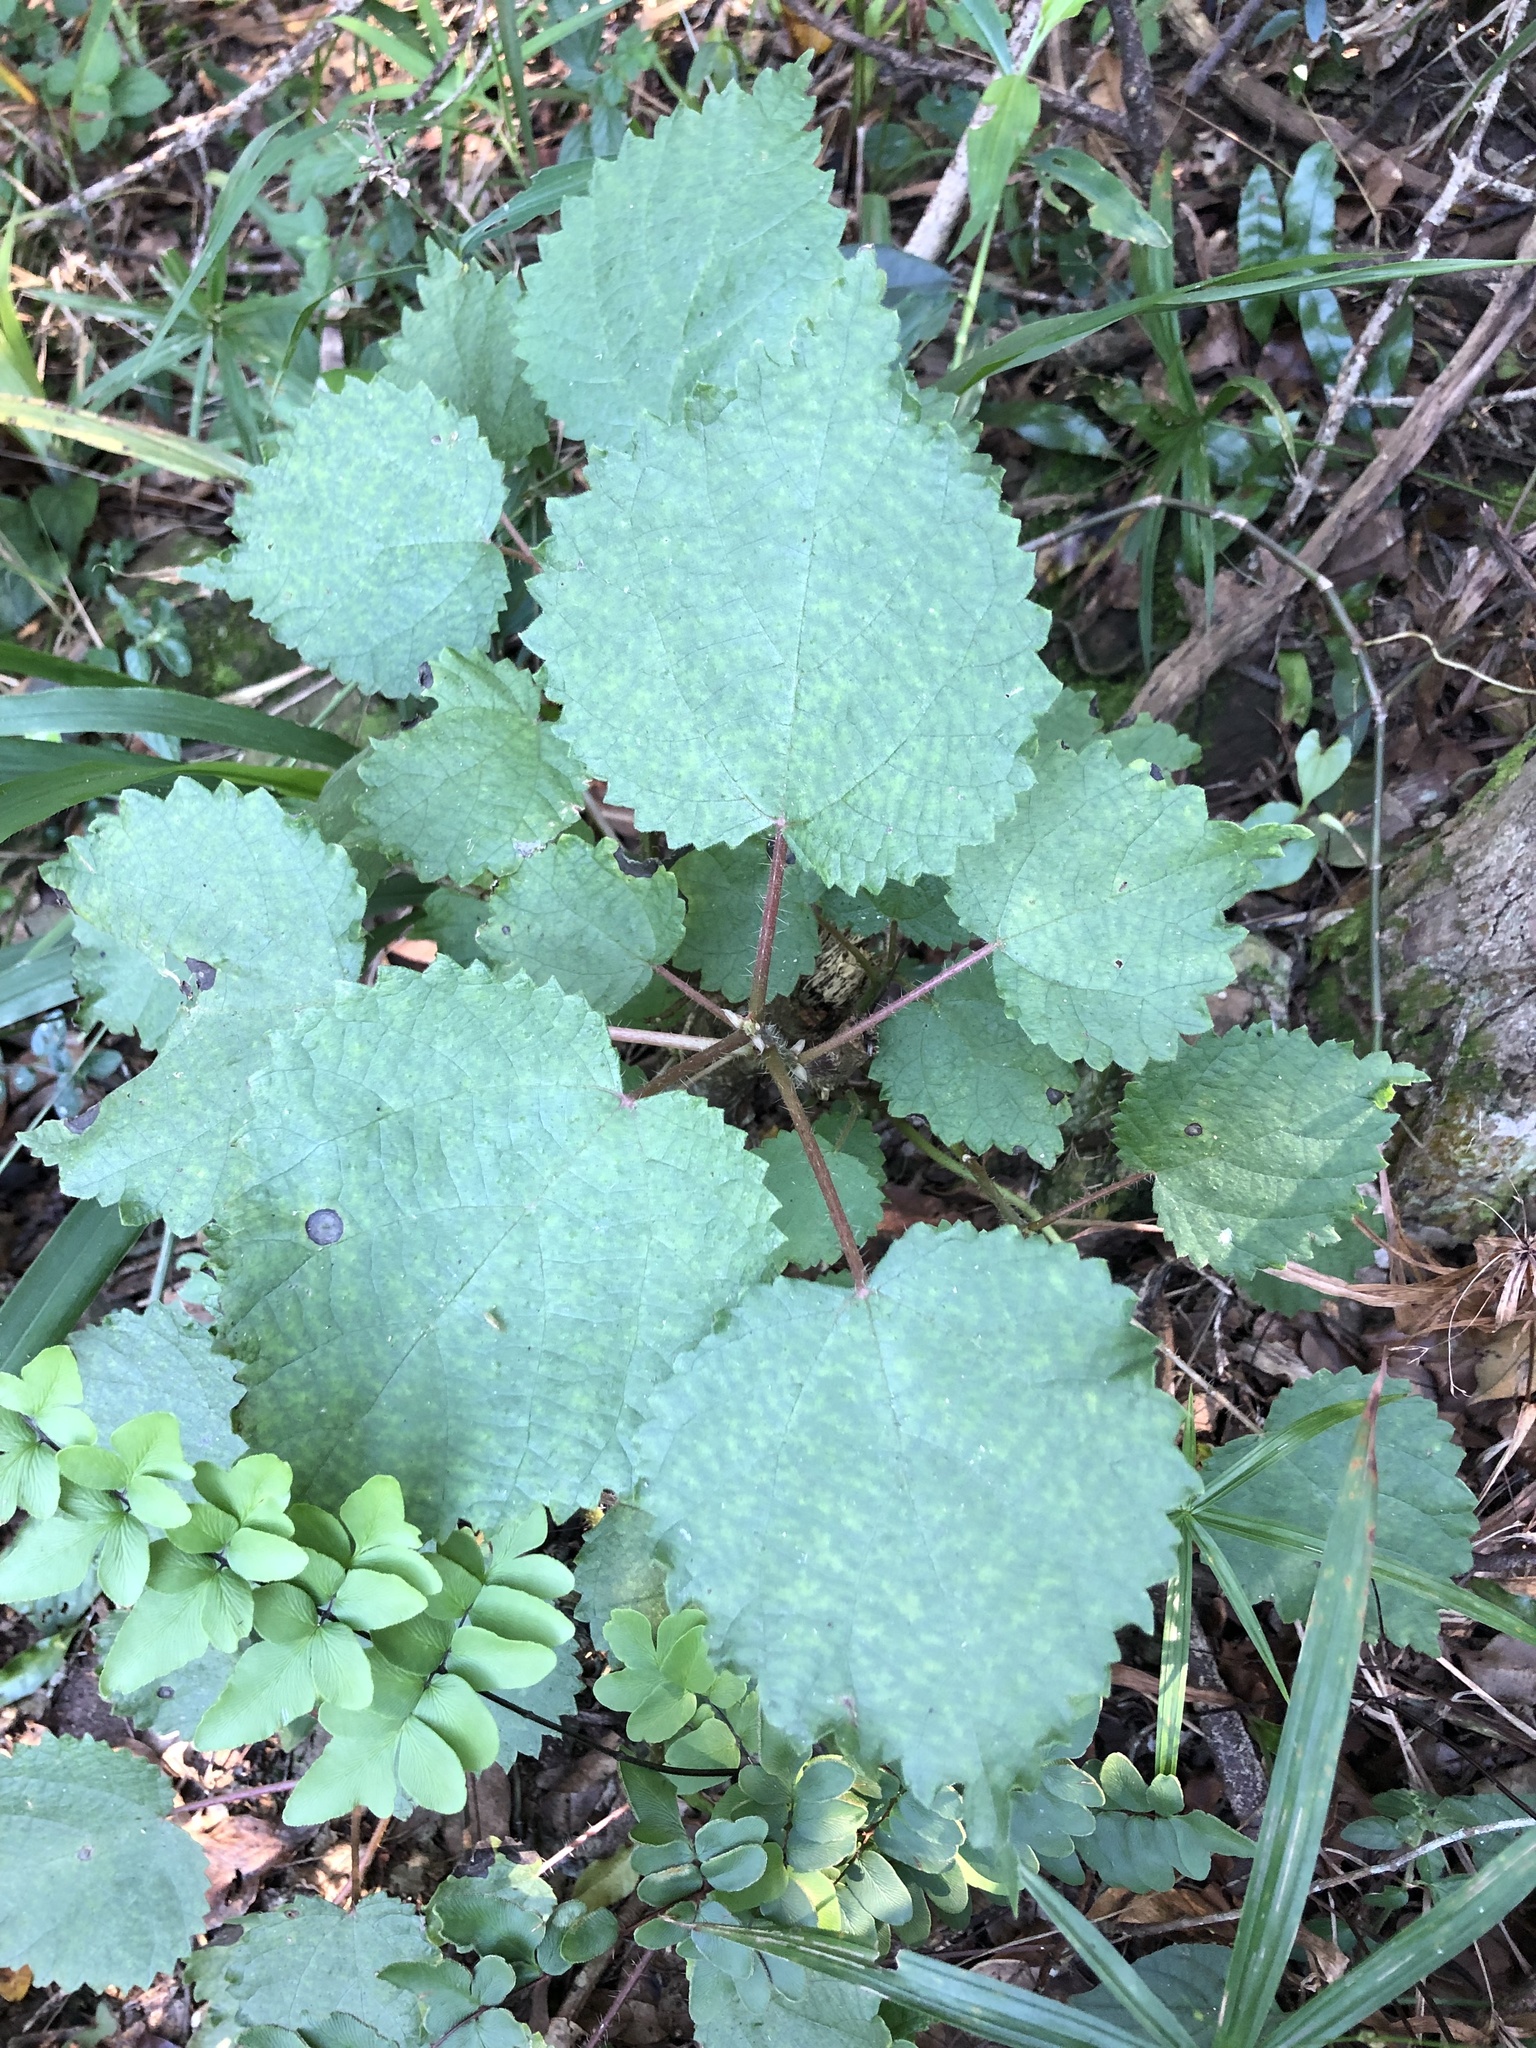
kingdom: Plantae
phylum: Tracheophyta
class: Magnoliopsida
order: Rosales
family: Urticaceae
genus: Obetia
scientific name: Obetia tenax
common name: Rock tree nettle
